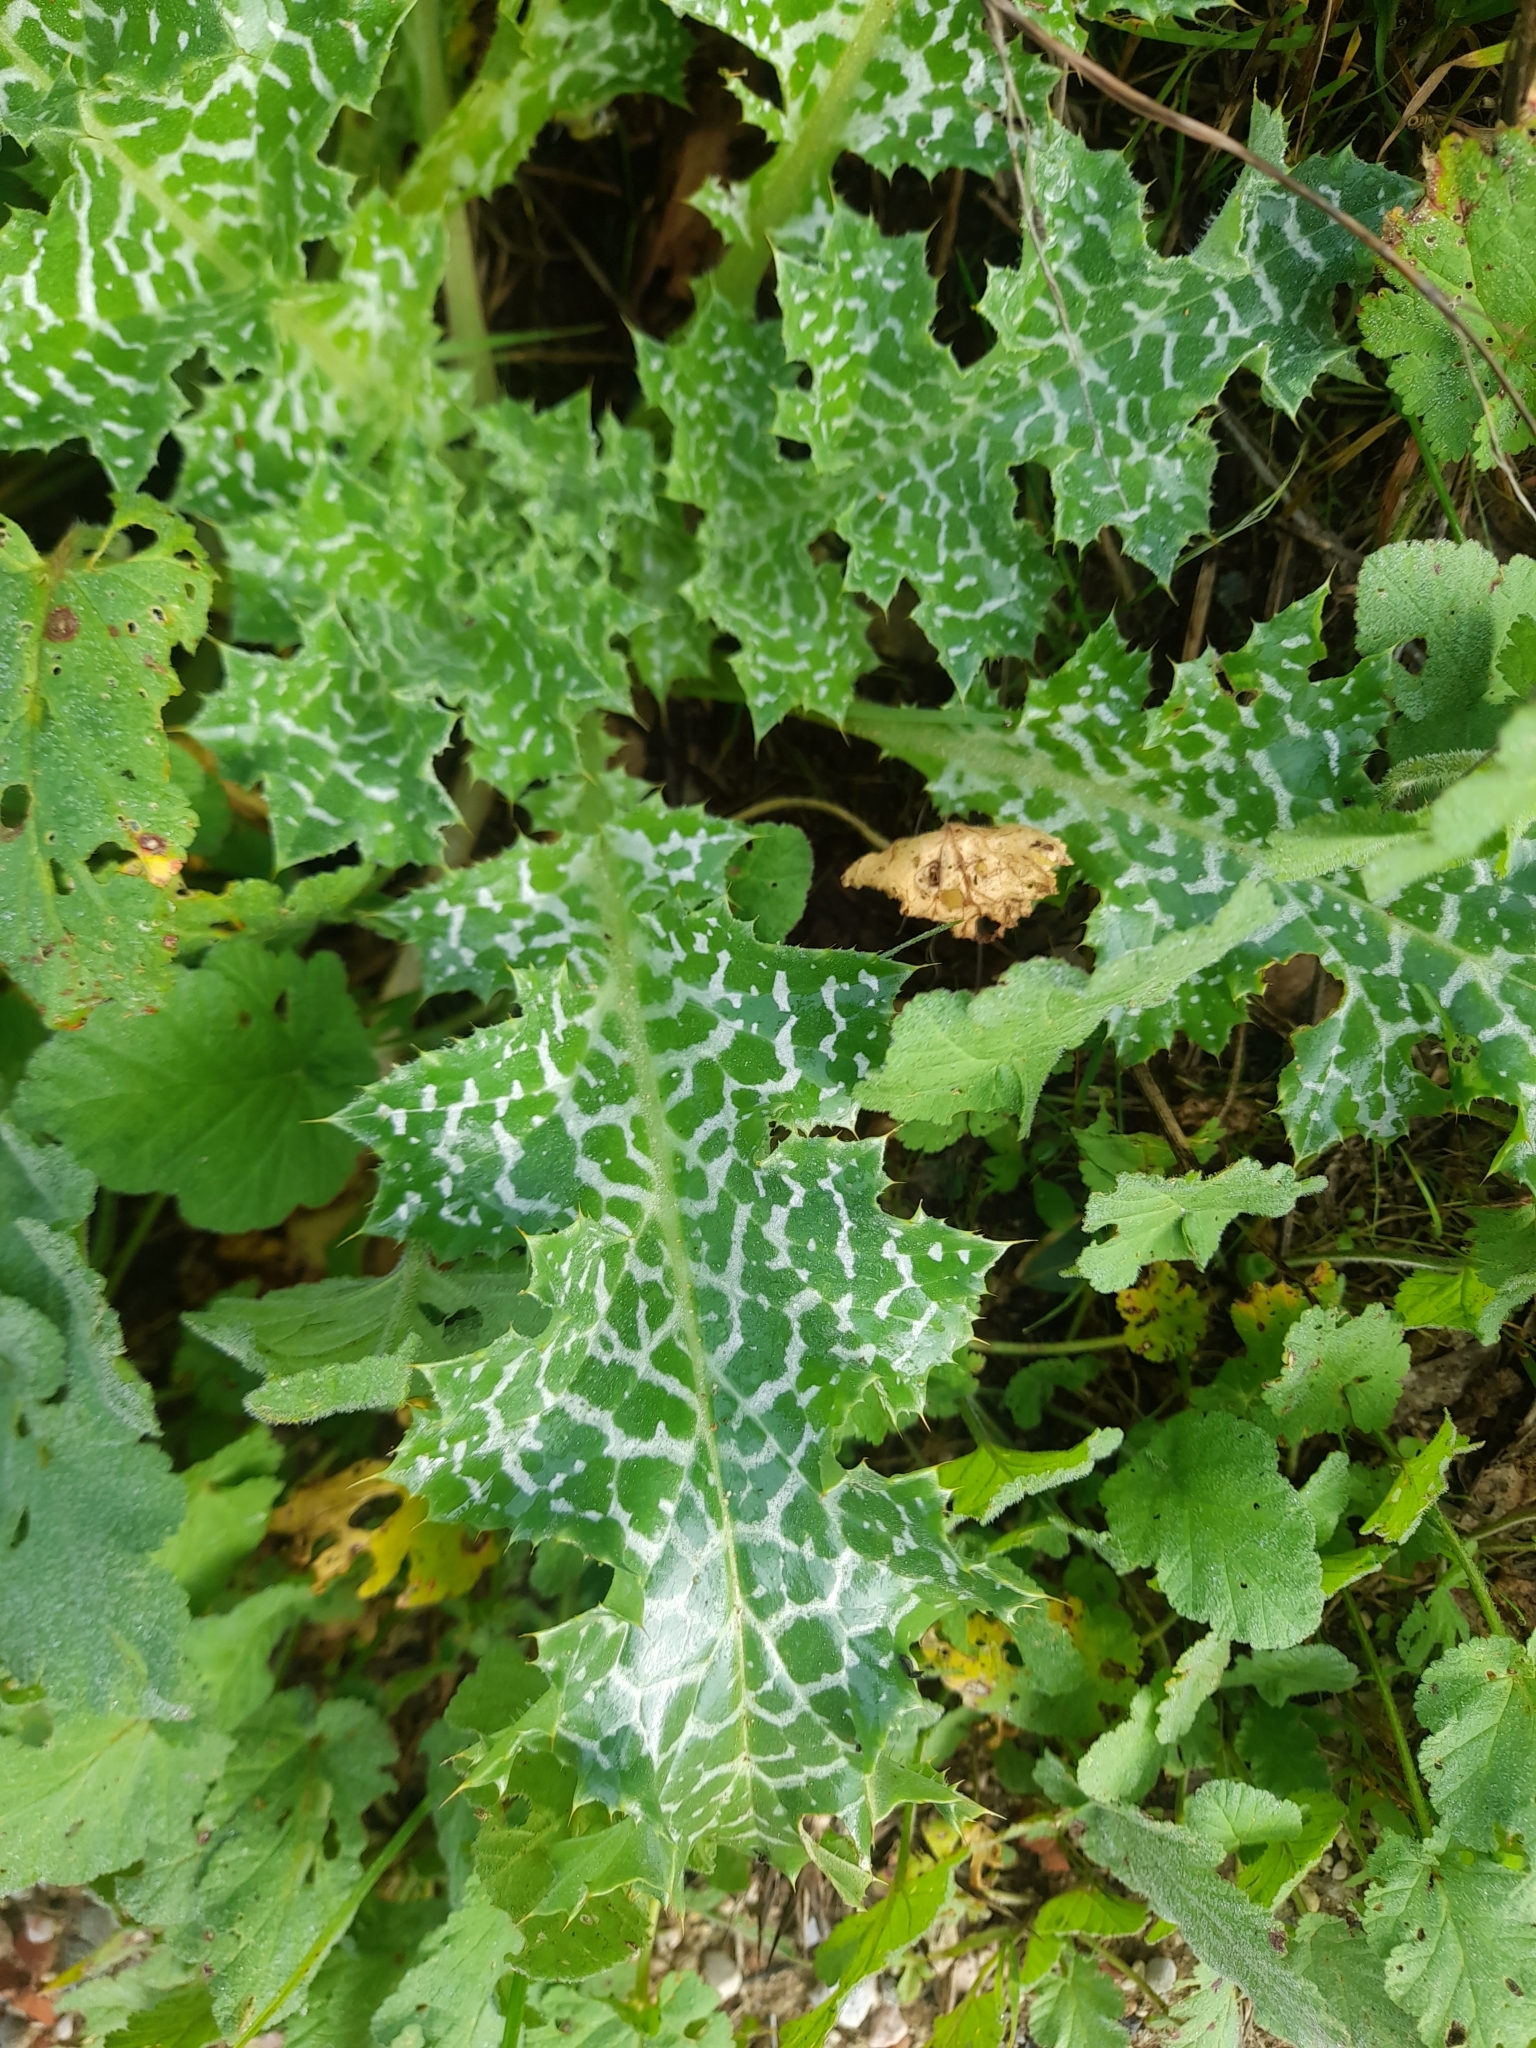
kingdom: Plantae
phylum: Tracheophyta
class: Magnoliopsida
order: Asterales
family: Asteraceae
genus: Silybum
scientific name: Silybum marianum
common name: Milk thistle
